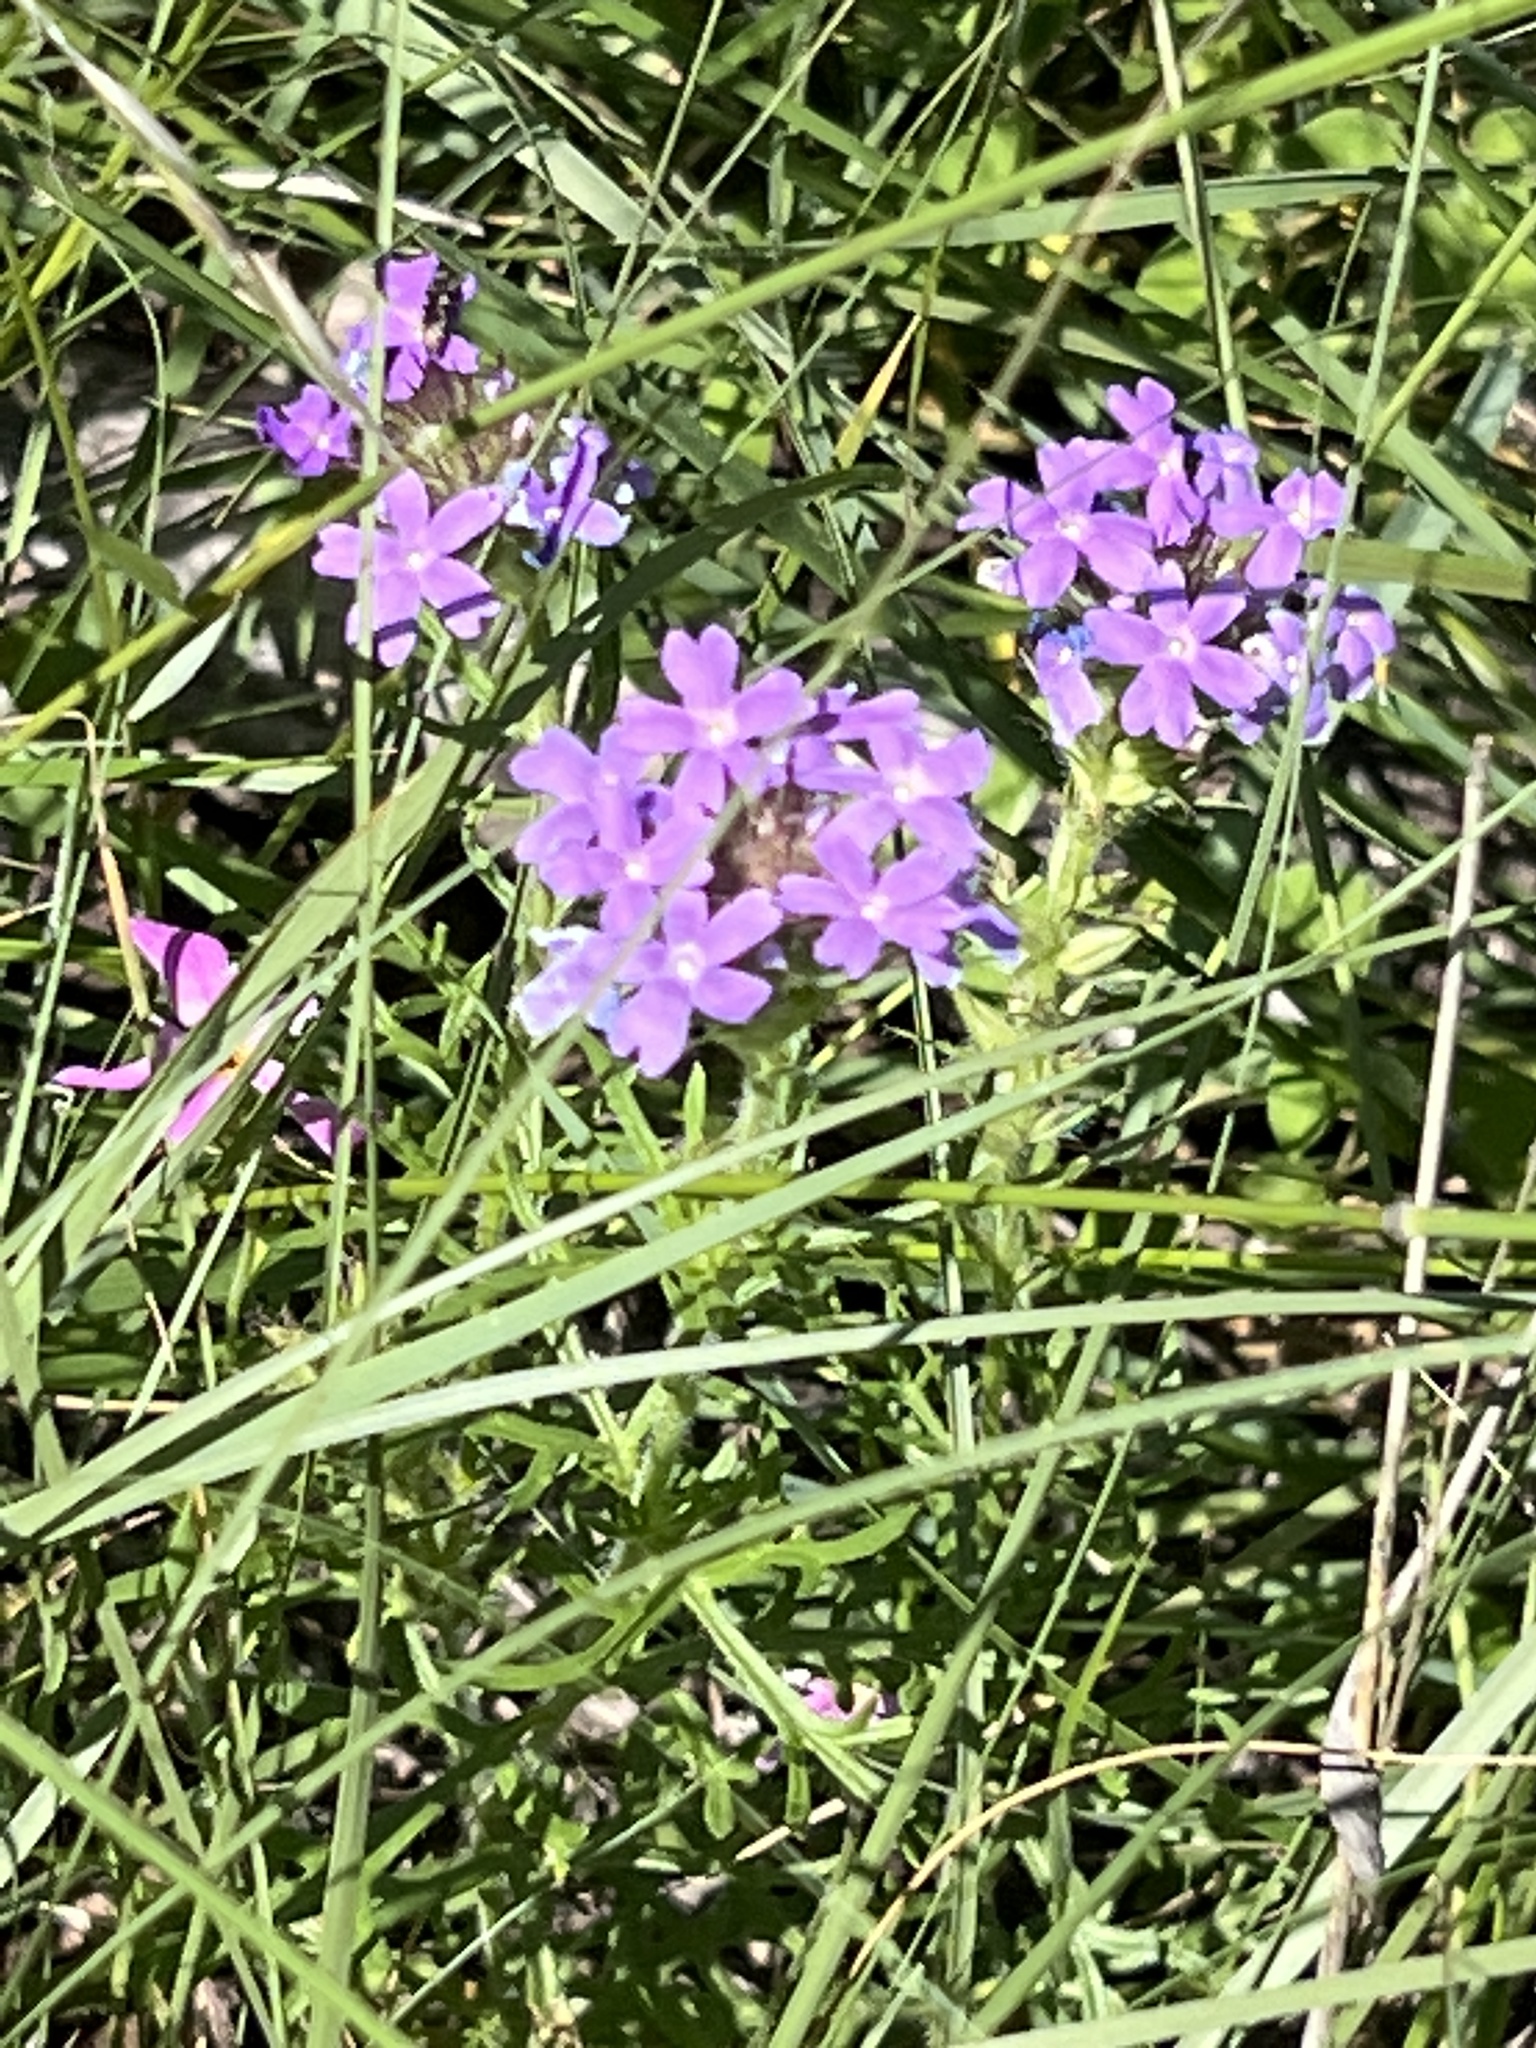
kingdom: Plantae
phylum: Tracheophyta
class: Magnoliopsida
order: Lamiales
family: Verbenaceae
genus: Verbena
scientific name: Verbena bipinnatifida
